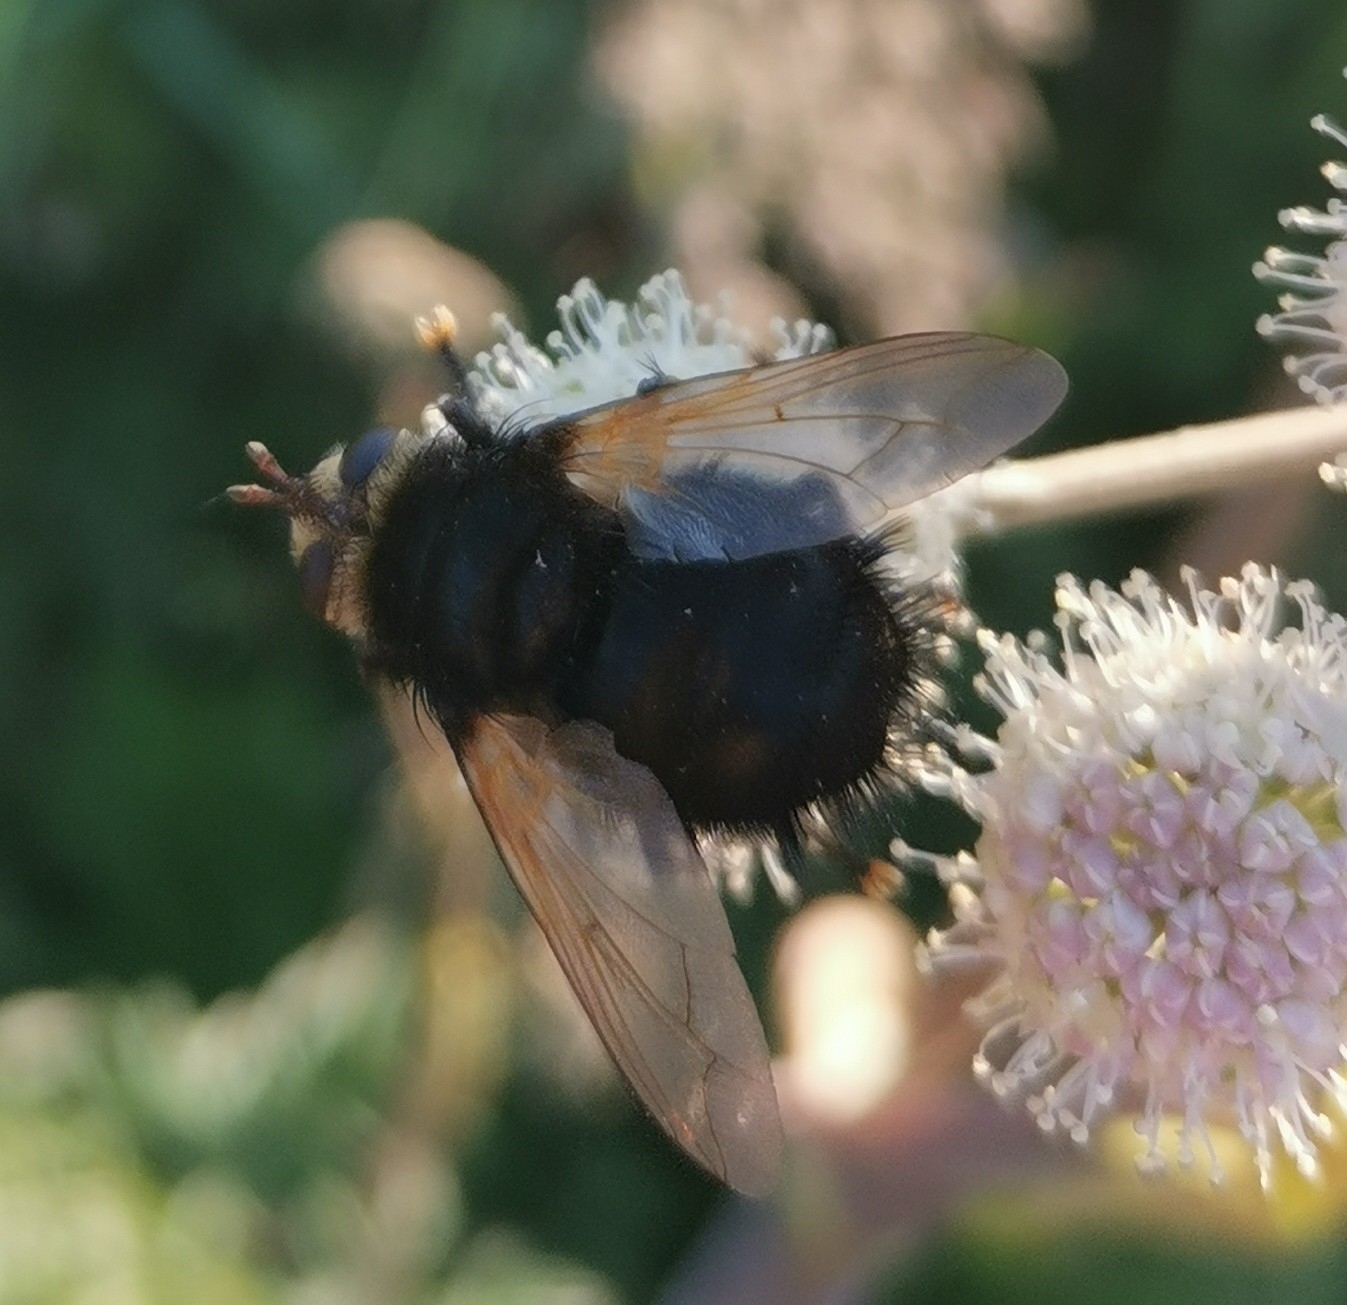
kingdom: Animalia
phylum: Arthropoda
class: Insecta
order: Diptera
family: Tachinidae
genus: Tachina
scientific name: Tachina grossa
